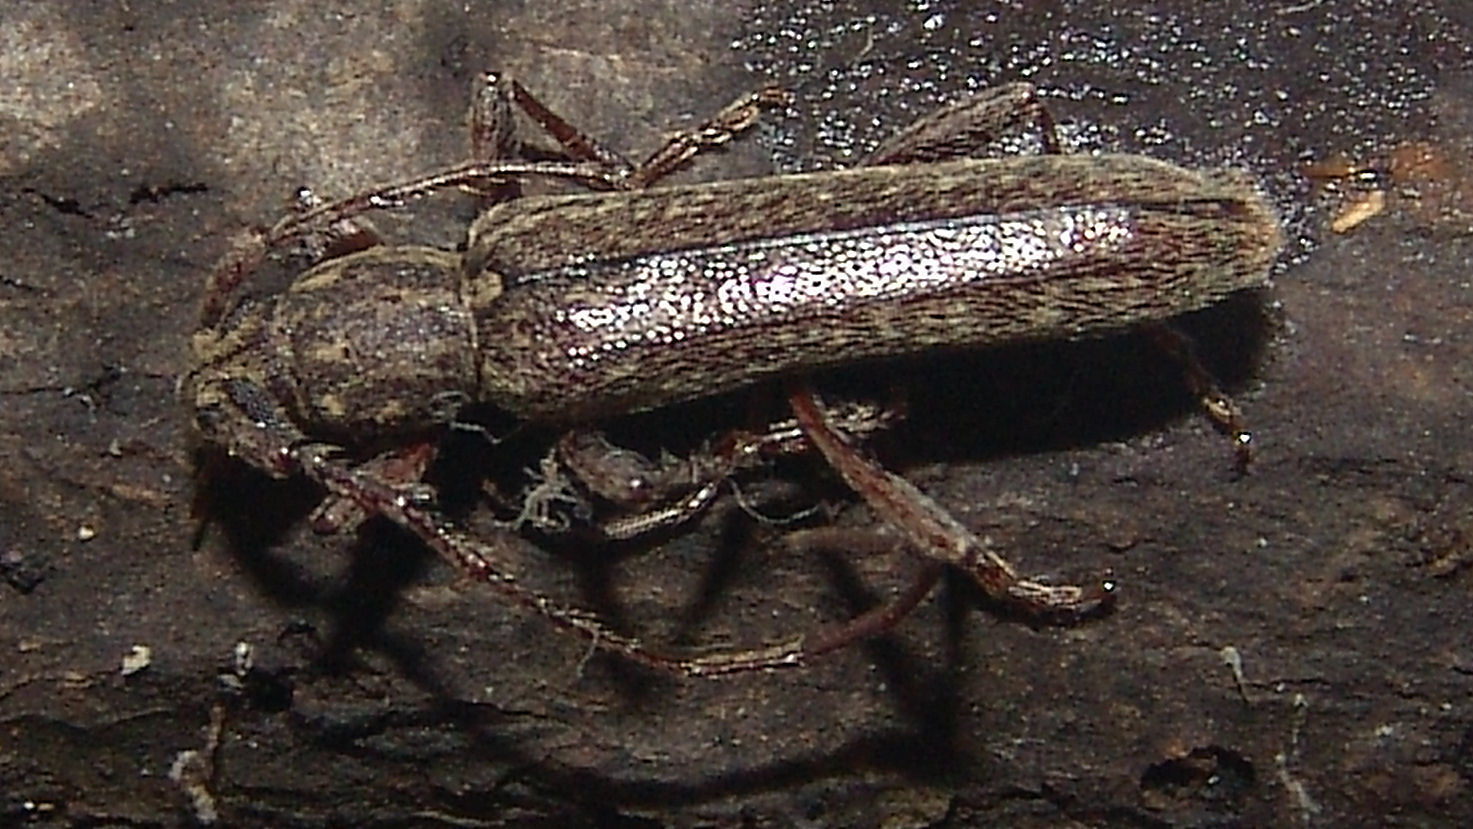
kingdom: Animalia
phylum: Arthropoda
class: Insecta
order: Coleoptera
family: Cerambycidae
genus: Anelaphus
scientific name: Anelaphus villosus
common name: Twig pruner
